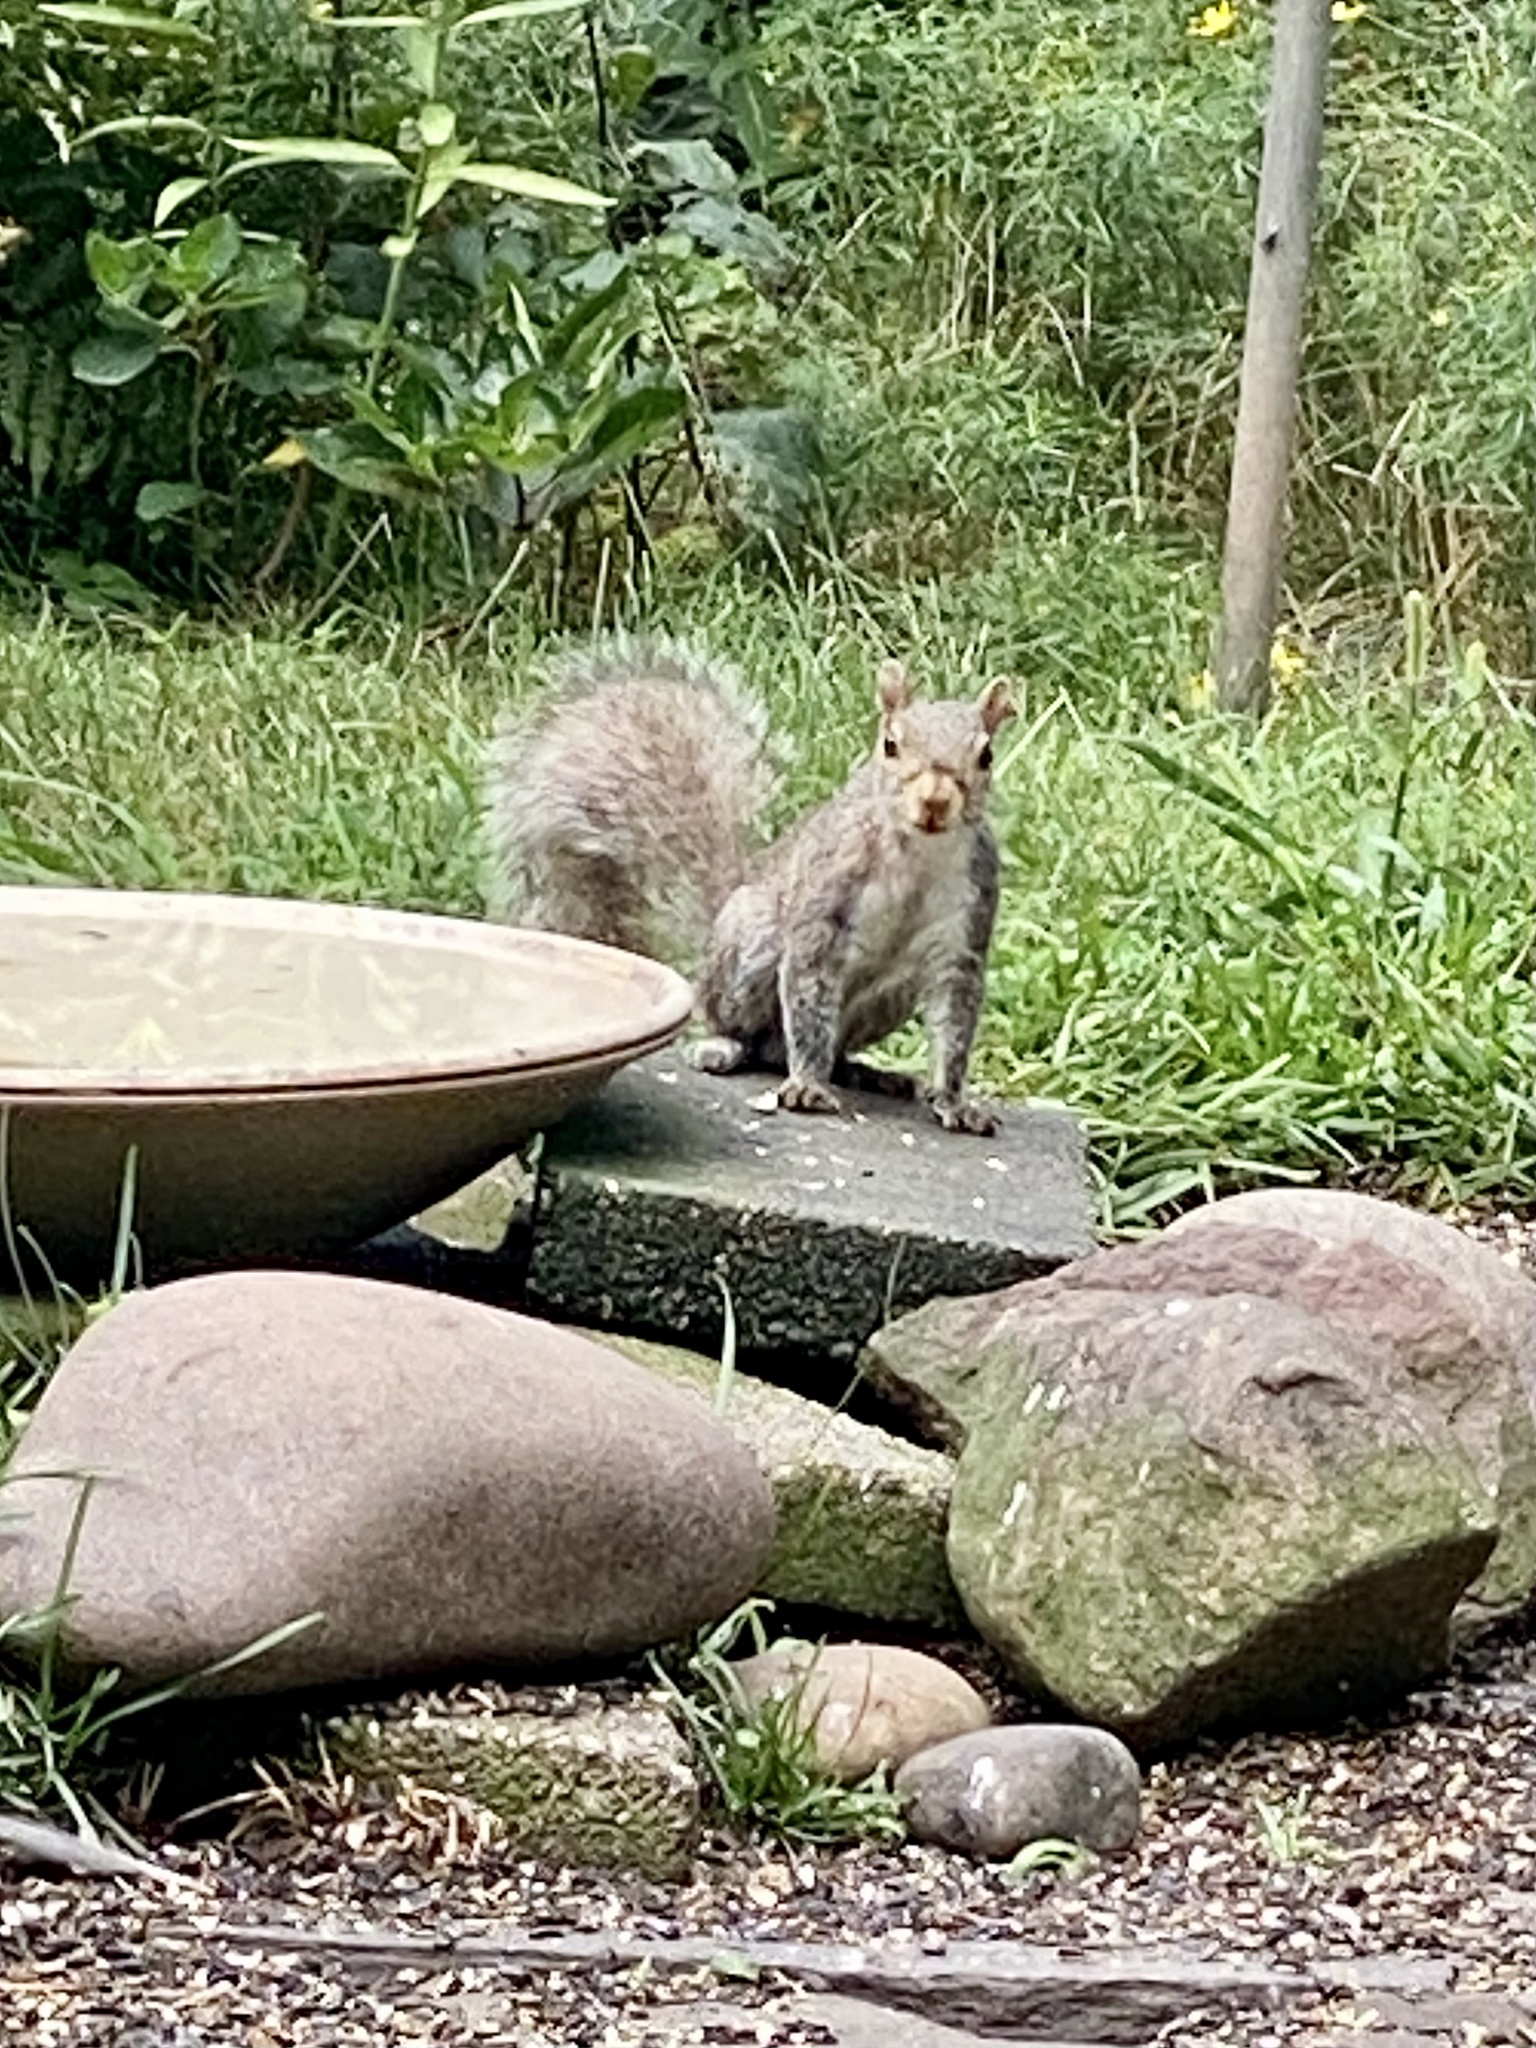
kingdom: Animalia
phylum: Chordata
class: Mammalia
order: Rodentia
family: Sciuridae
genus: Sciurus
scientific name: Sciurus carolinensis
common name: Eastern gray squirrel
